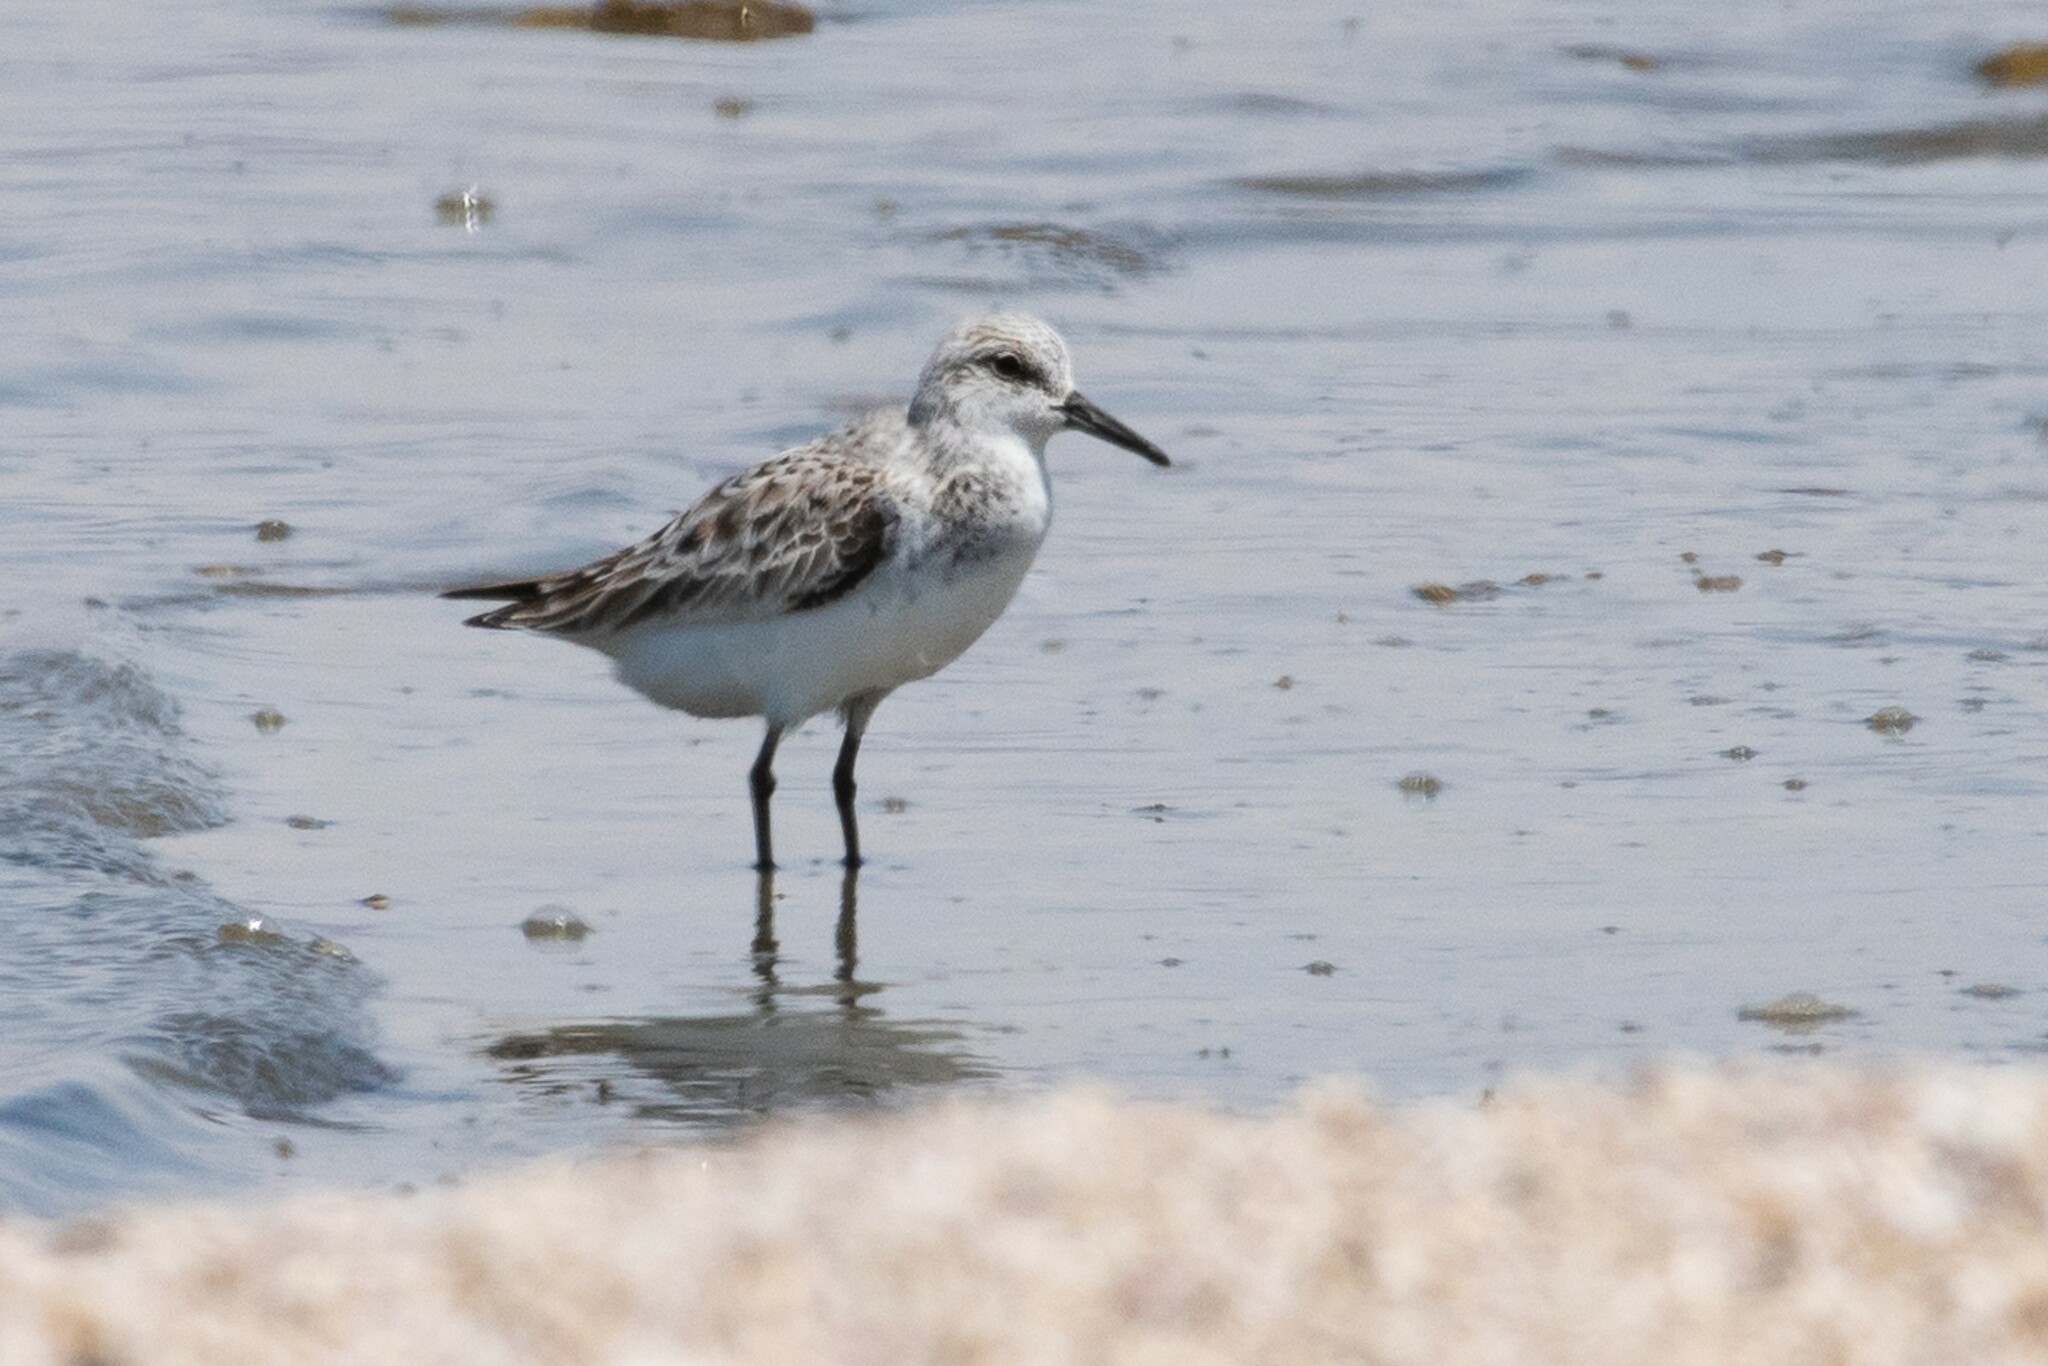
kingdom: Animalia
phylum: Chordata
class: Aves
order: Charadriiformes
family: Scolopacidae
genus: Calidris
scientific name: Calidris alba
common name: Sanderling
